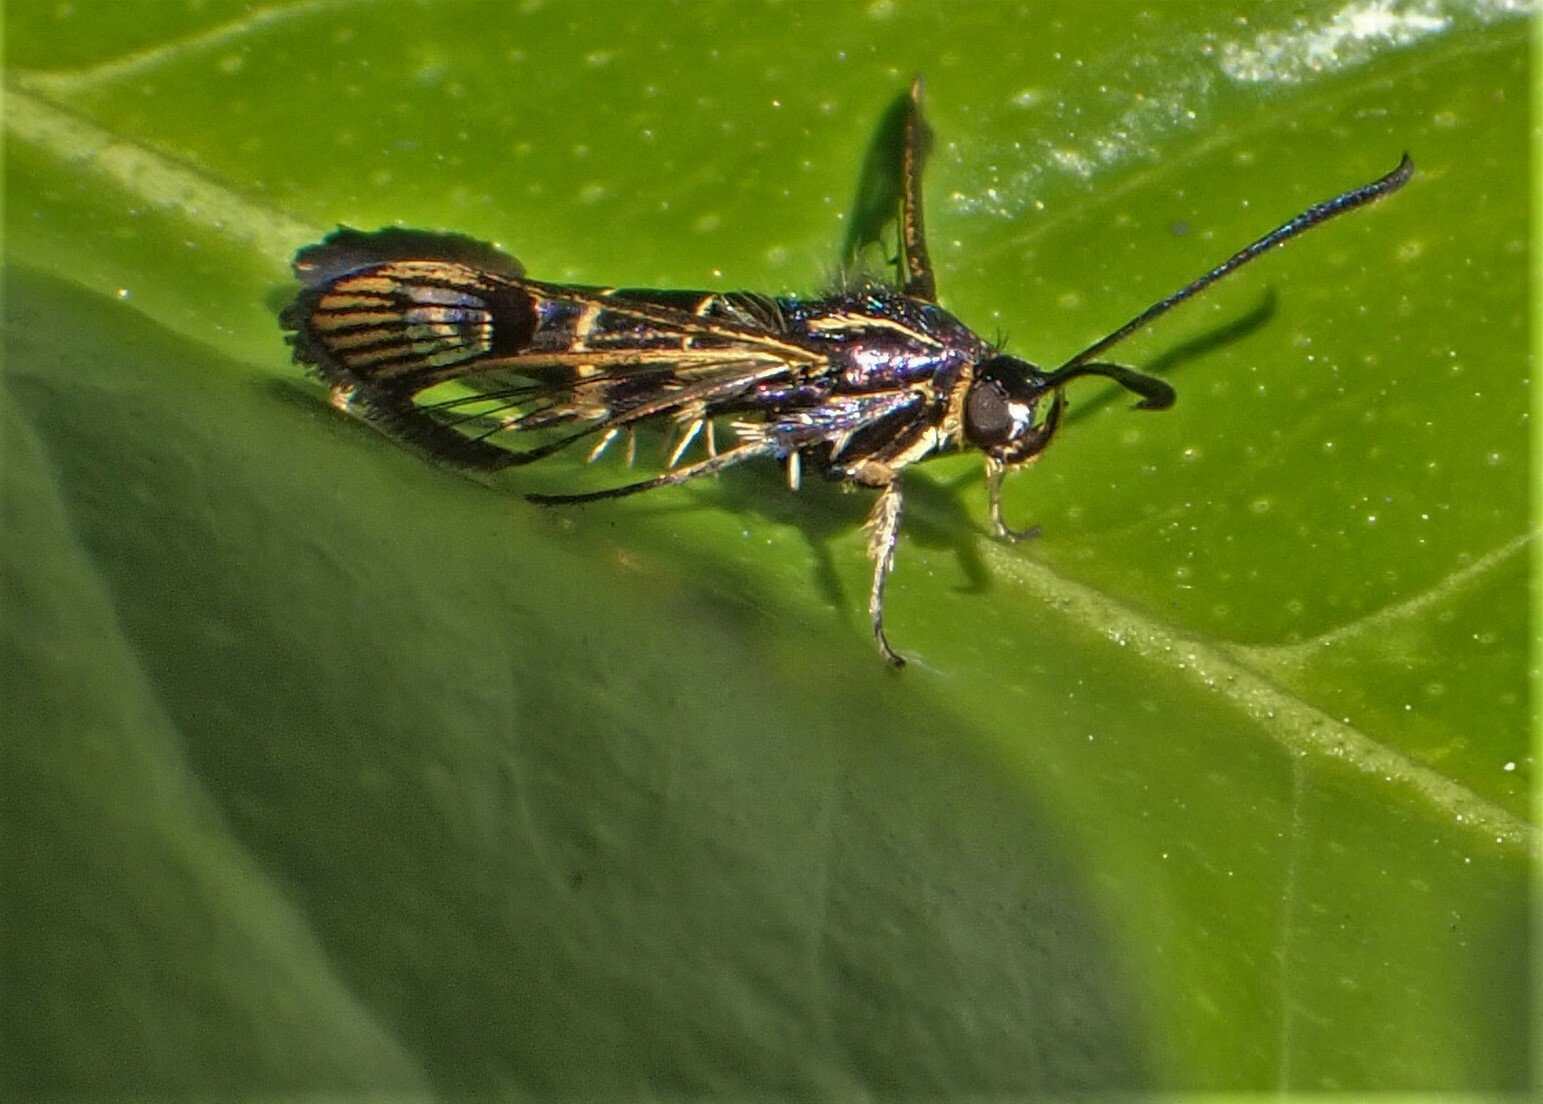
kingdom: Animalia
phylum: Arthropoda
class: Insecta
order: Lepidoptera
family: Sesiidae
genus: Synanthedon
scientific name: Synanthedon tipuliformis
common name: Currant clearwing
